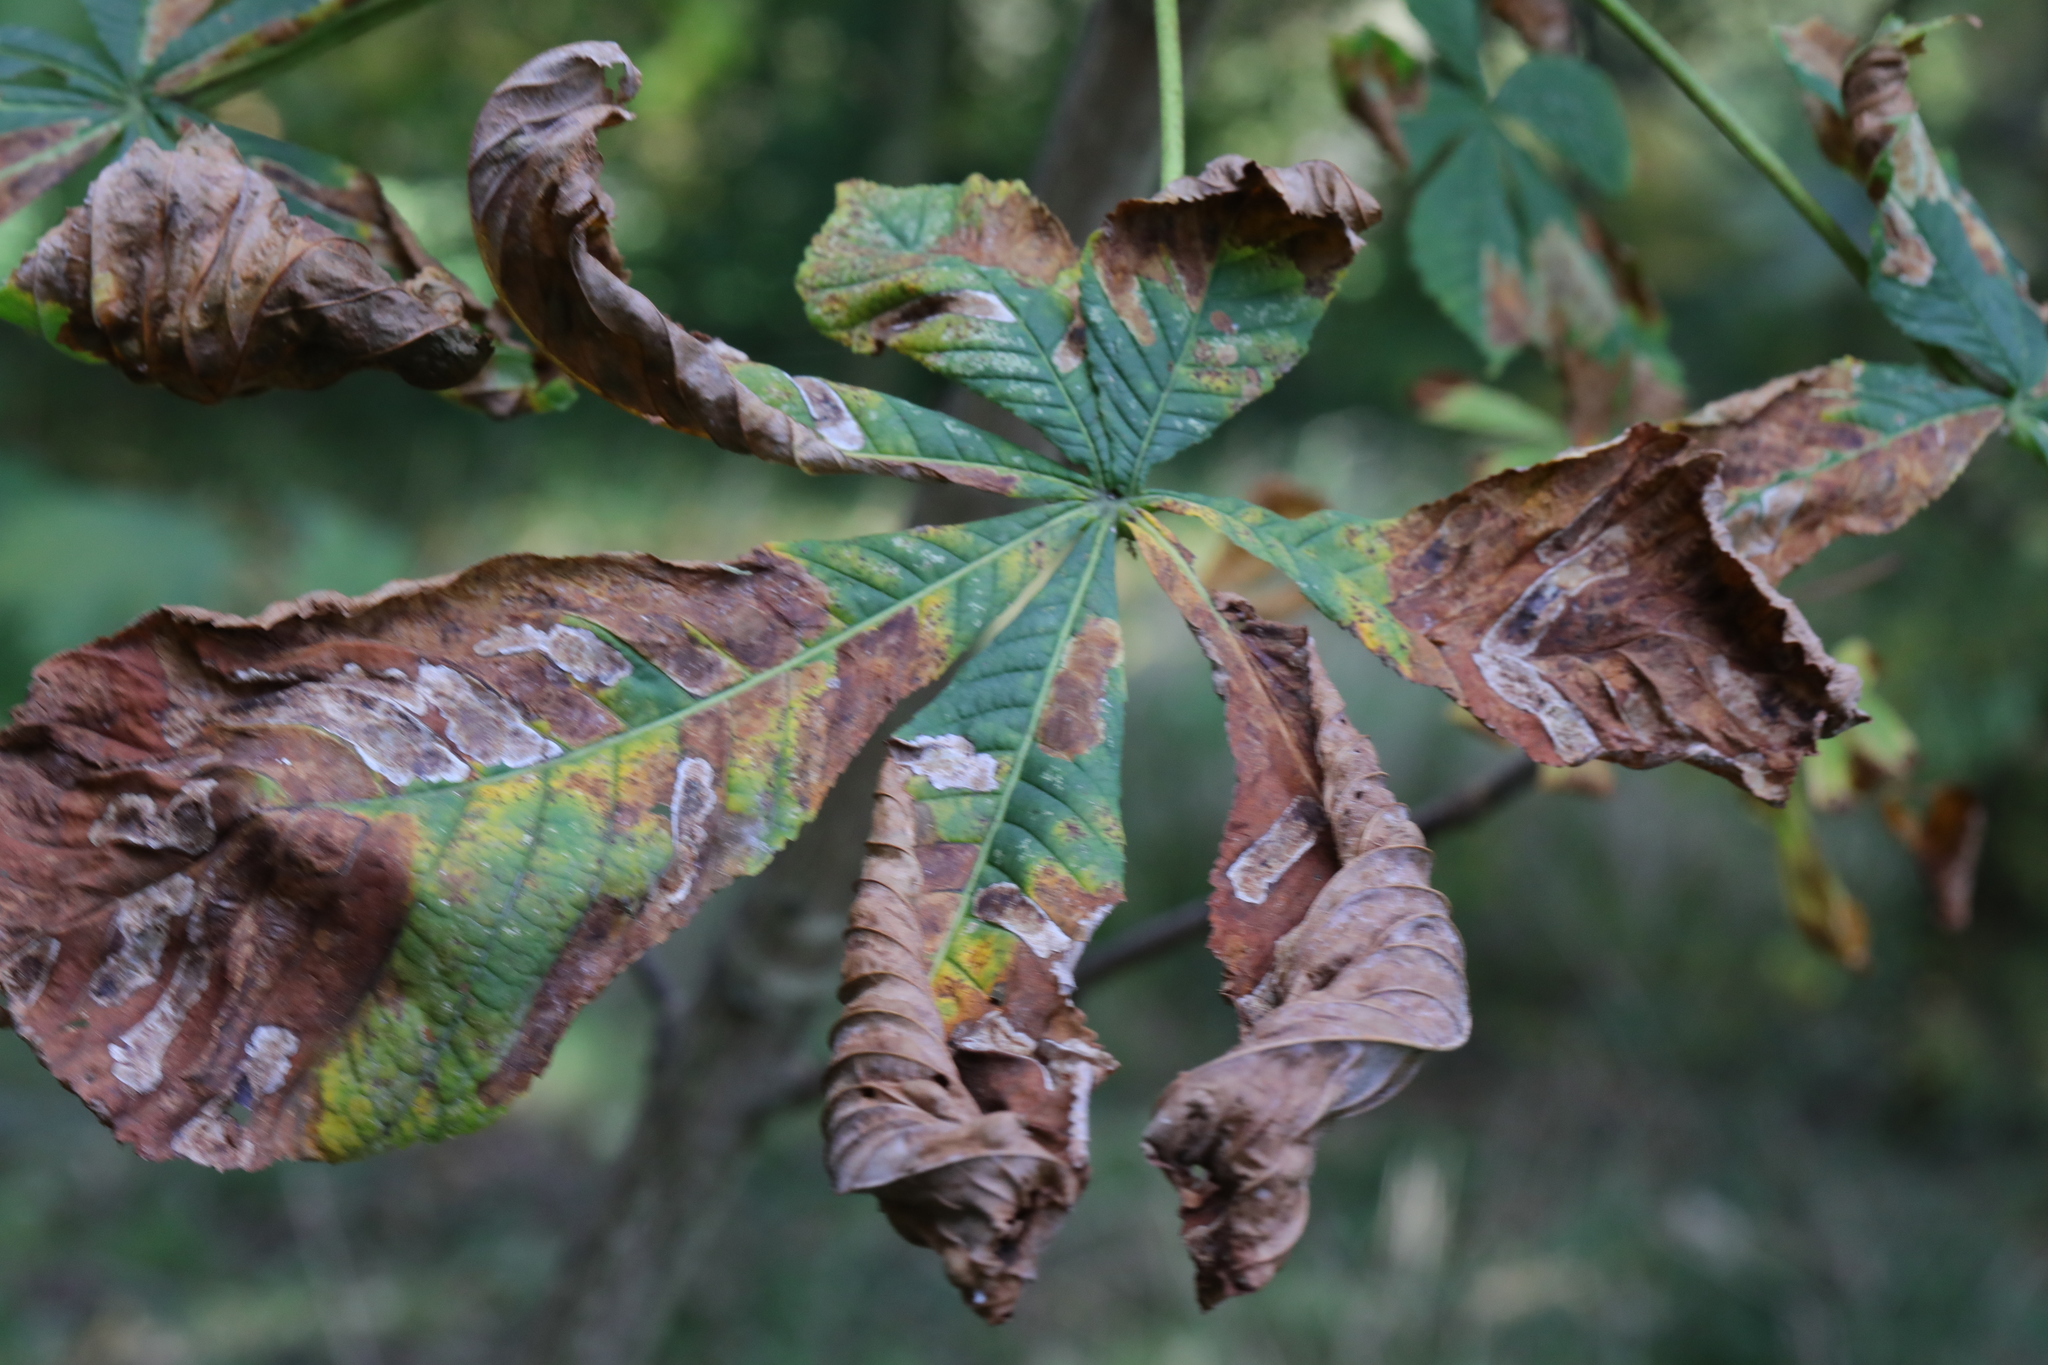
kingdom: Animalia
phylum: Arthropoda
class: Insecta
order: Lepidoptera
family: Gracillariidae
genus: Cameraria
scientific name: Cameraria ohridella
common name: Horse-chestnut leaf-miner
